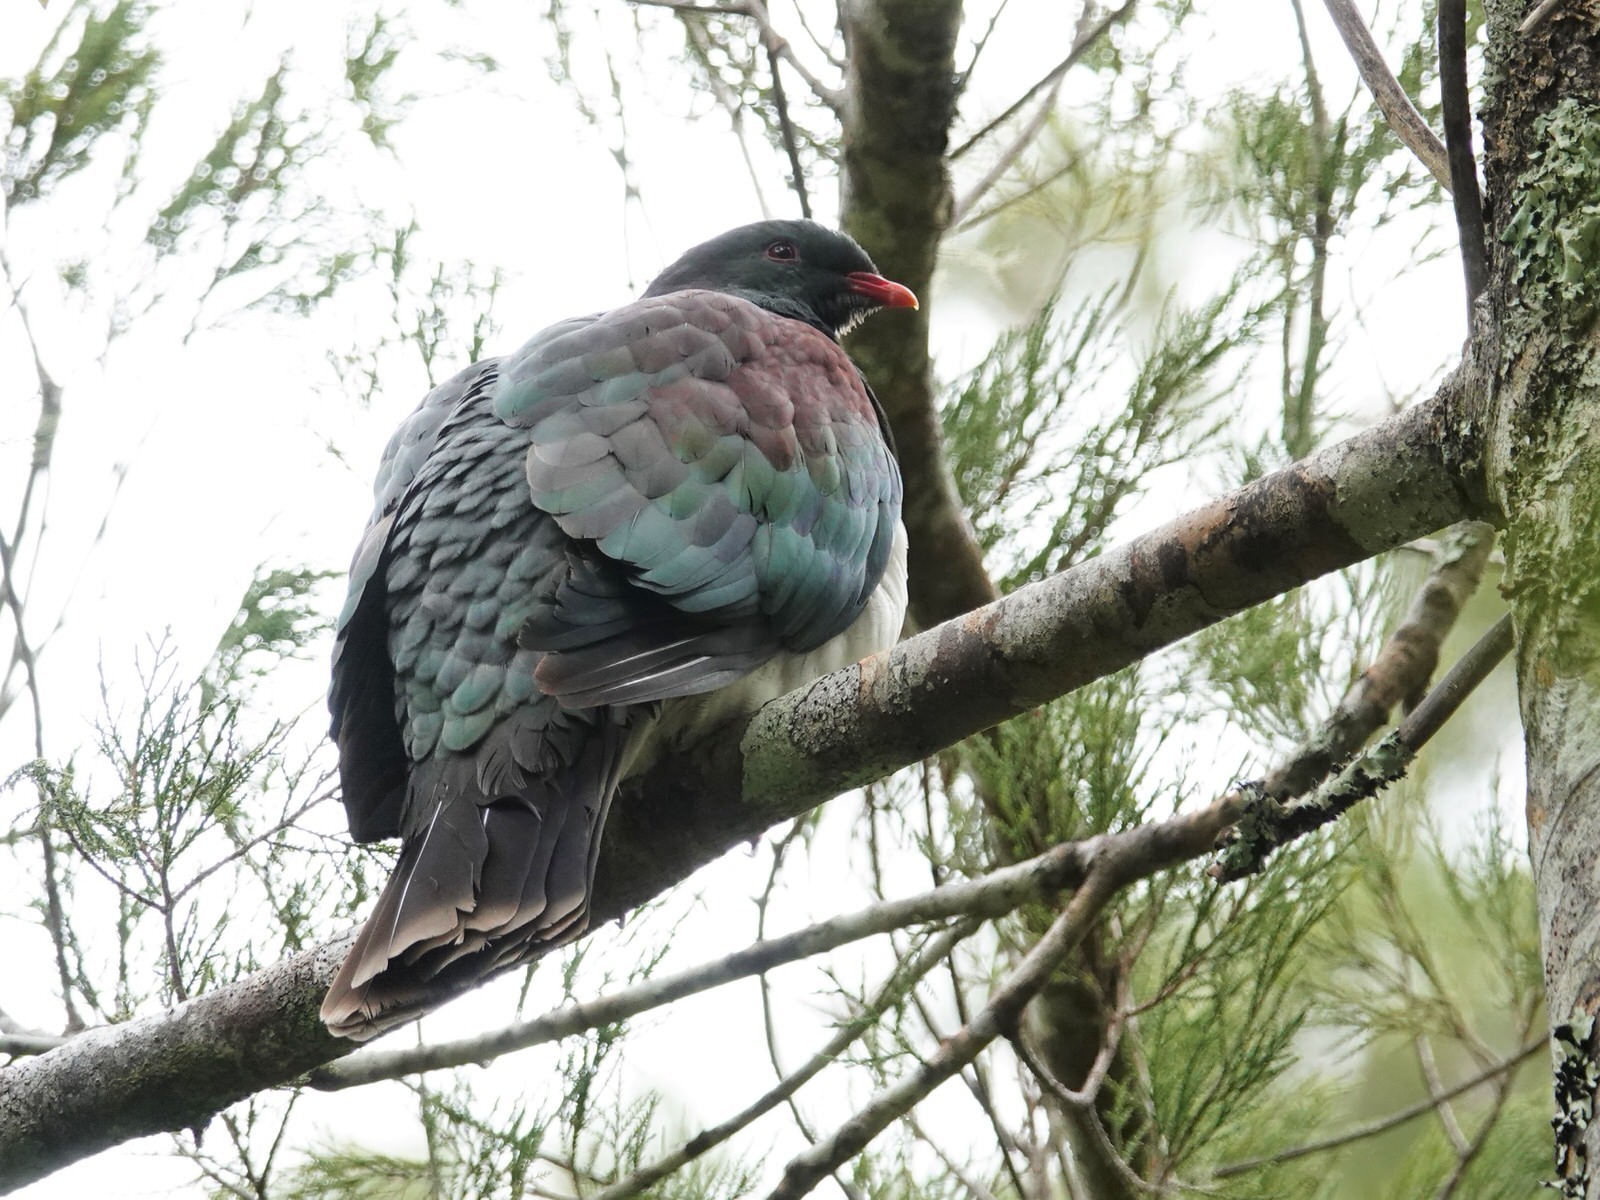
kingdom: Animalia
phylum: Chordata
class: Aves
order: Columbiformes
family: Columbidae
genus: Hemiphaga
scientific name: Hemiphaga novaeseelandiae
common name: New zealand pigeon
